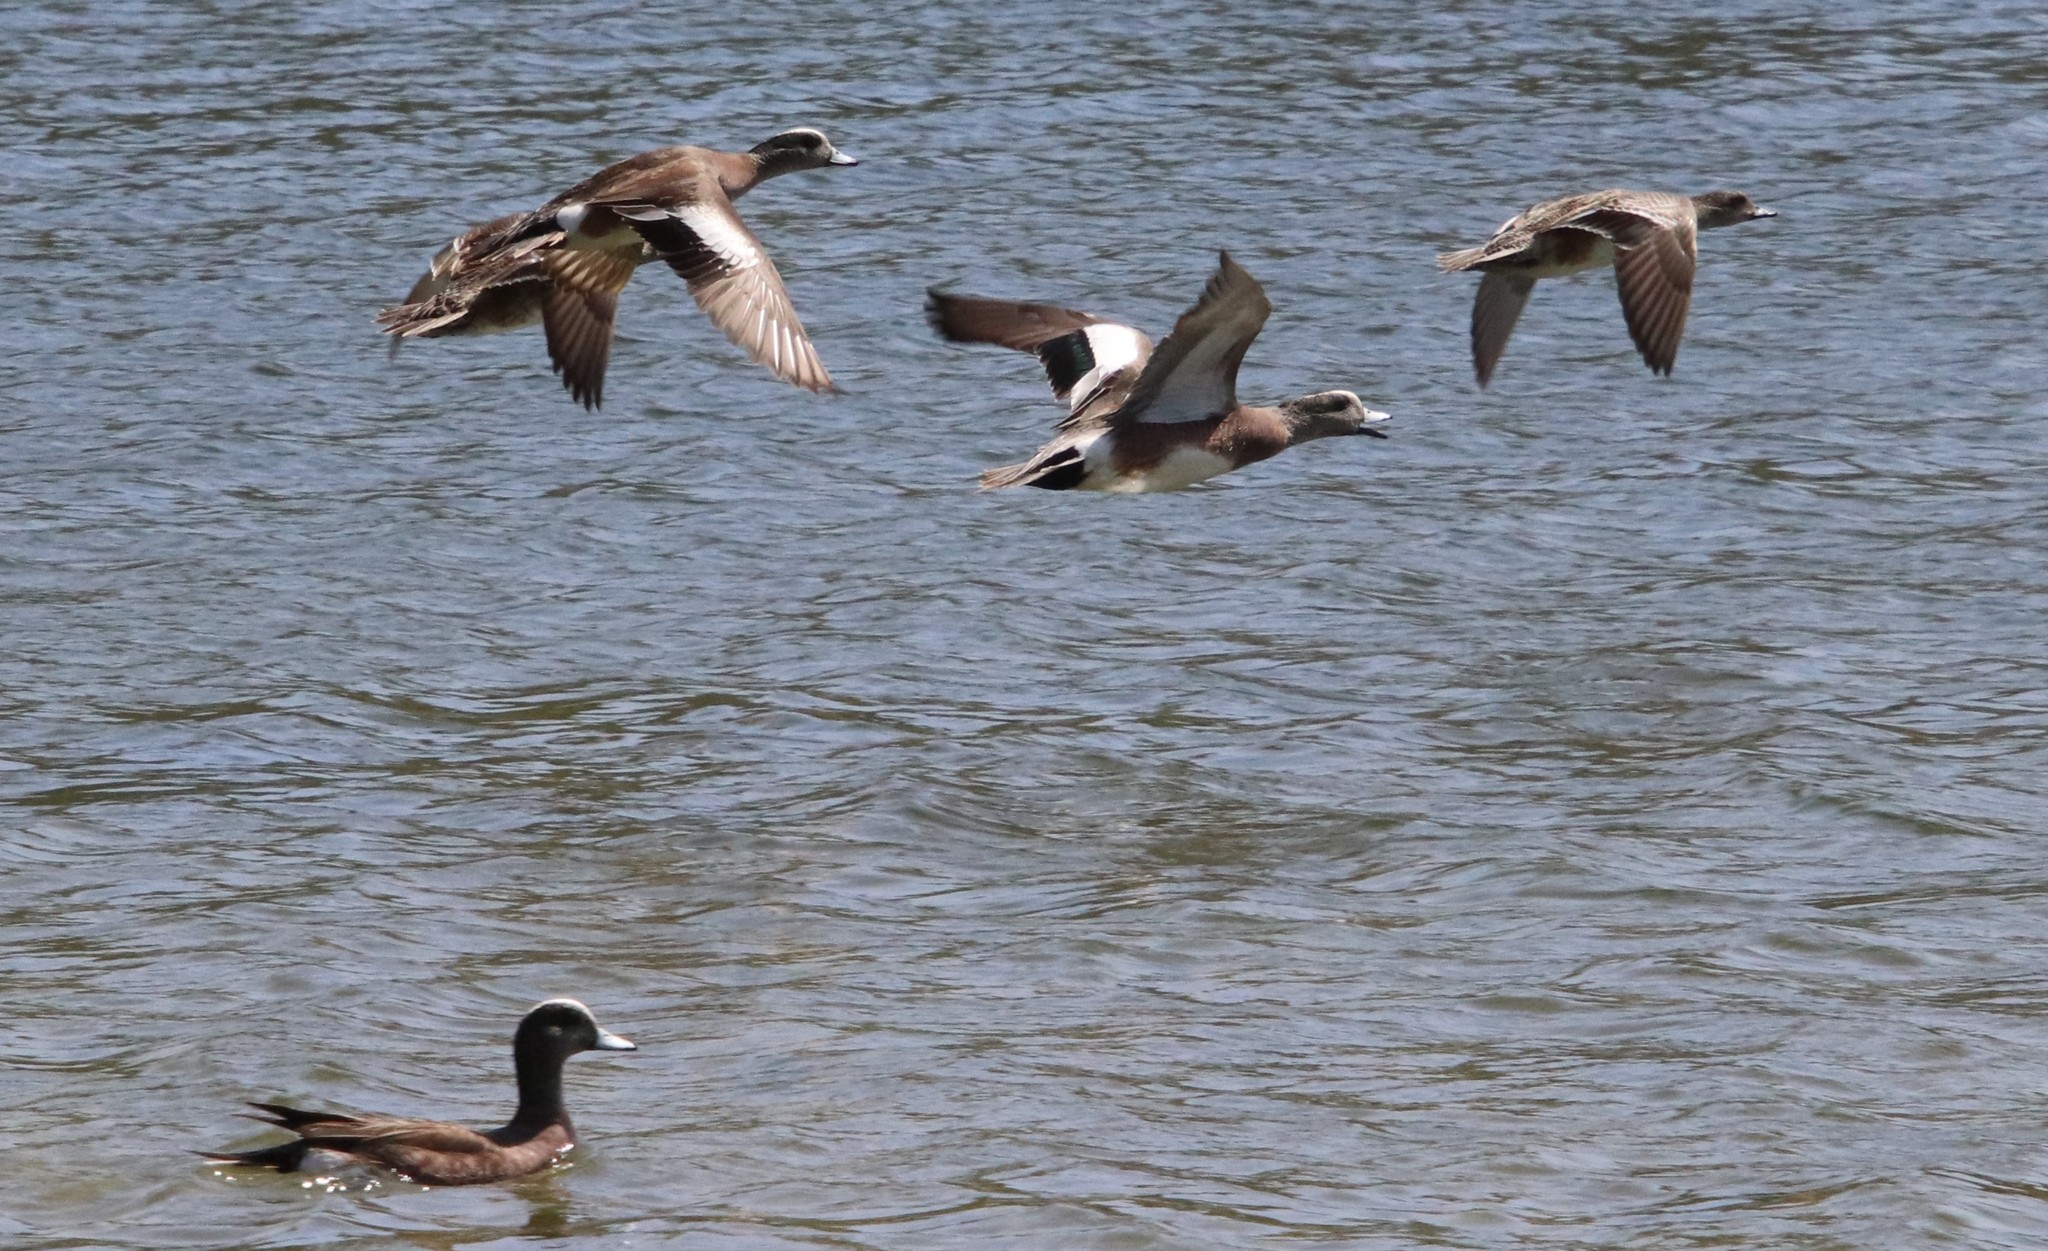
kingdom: Animalia
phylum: Chordata
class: Aves
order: Anseriformes
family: Anatidae
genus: Mareca
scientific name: Mareca americana
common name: American wigeon
